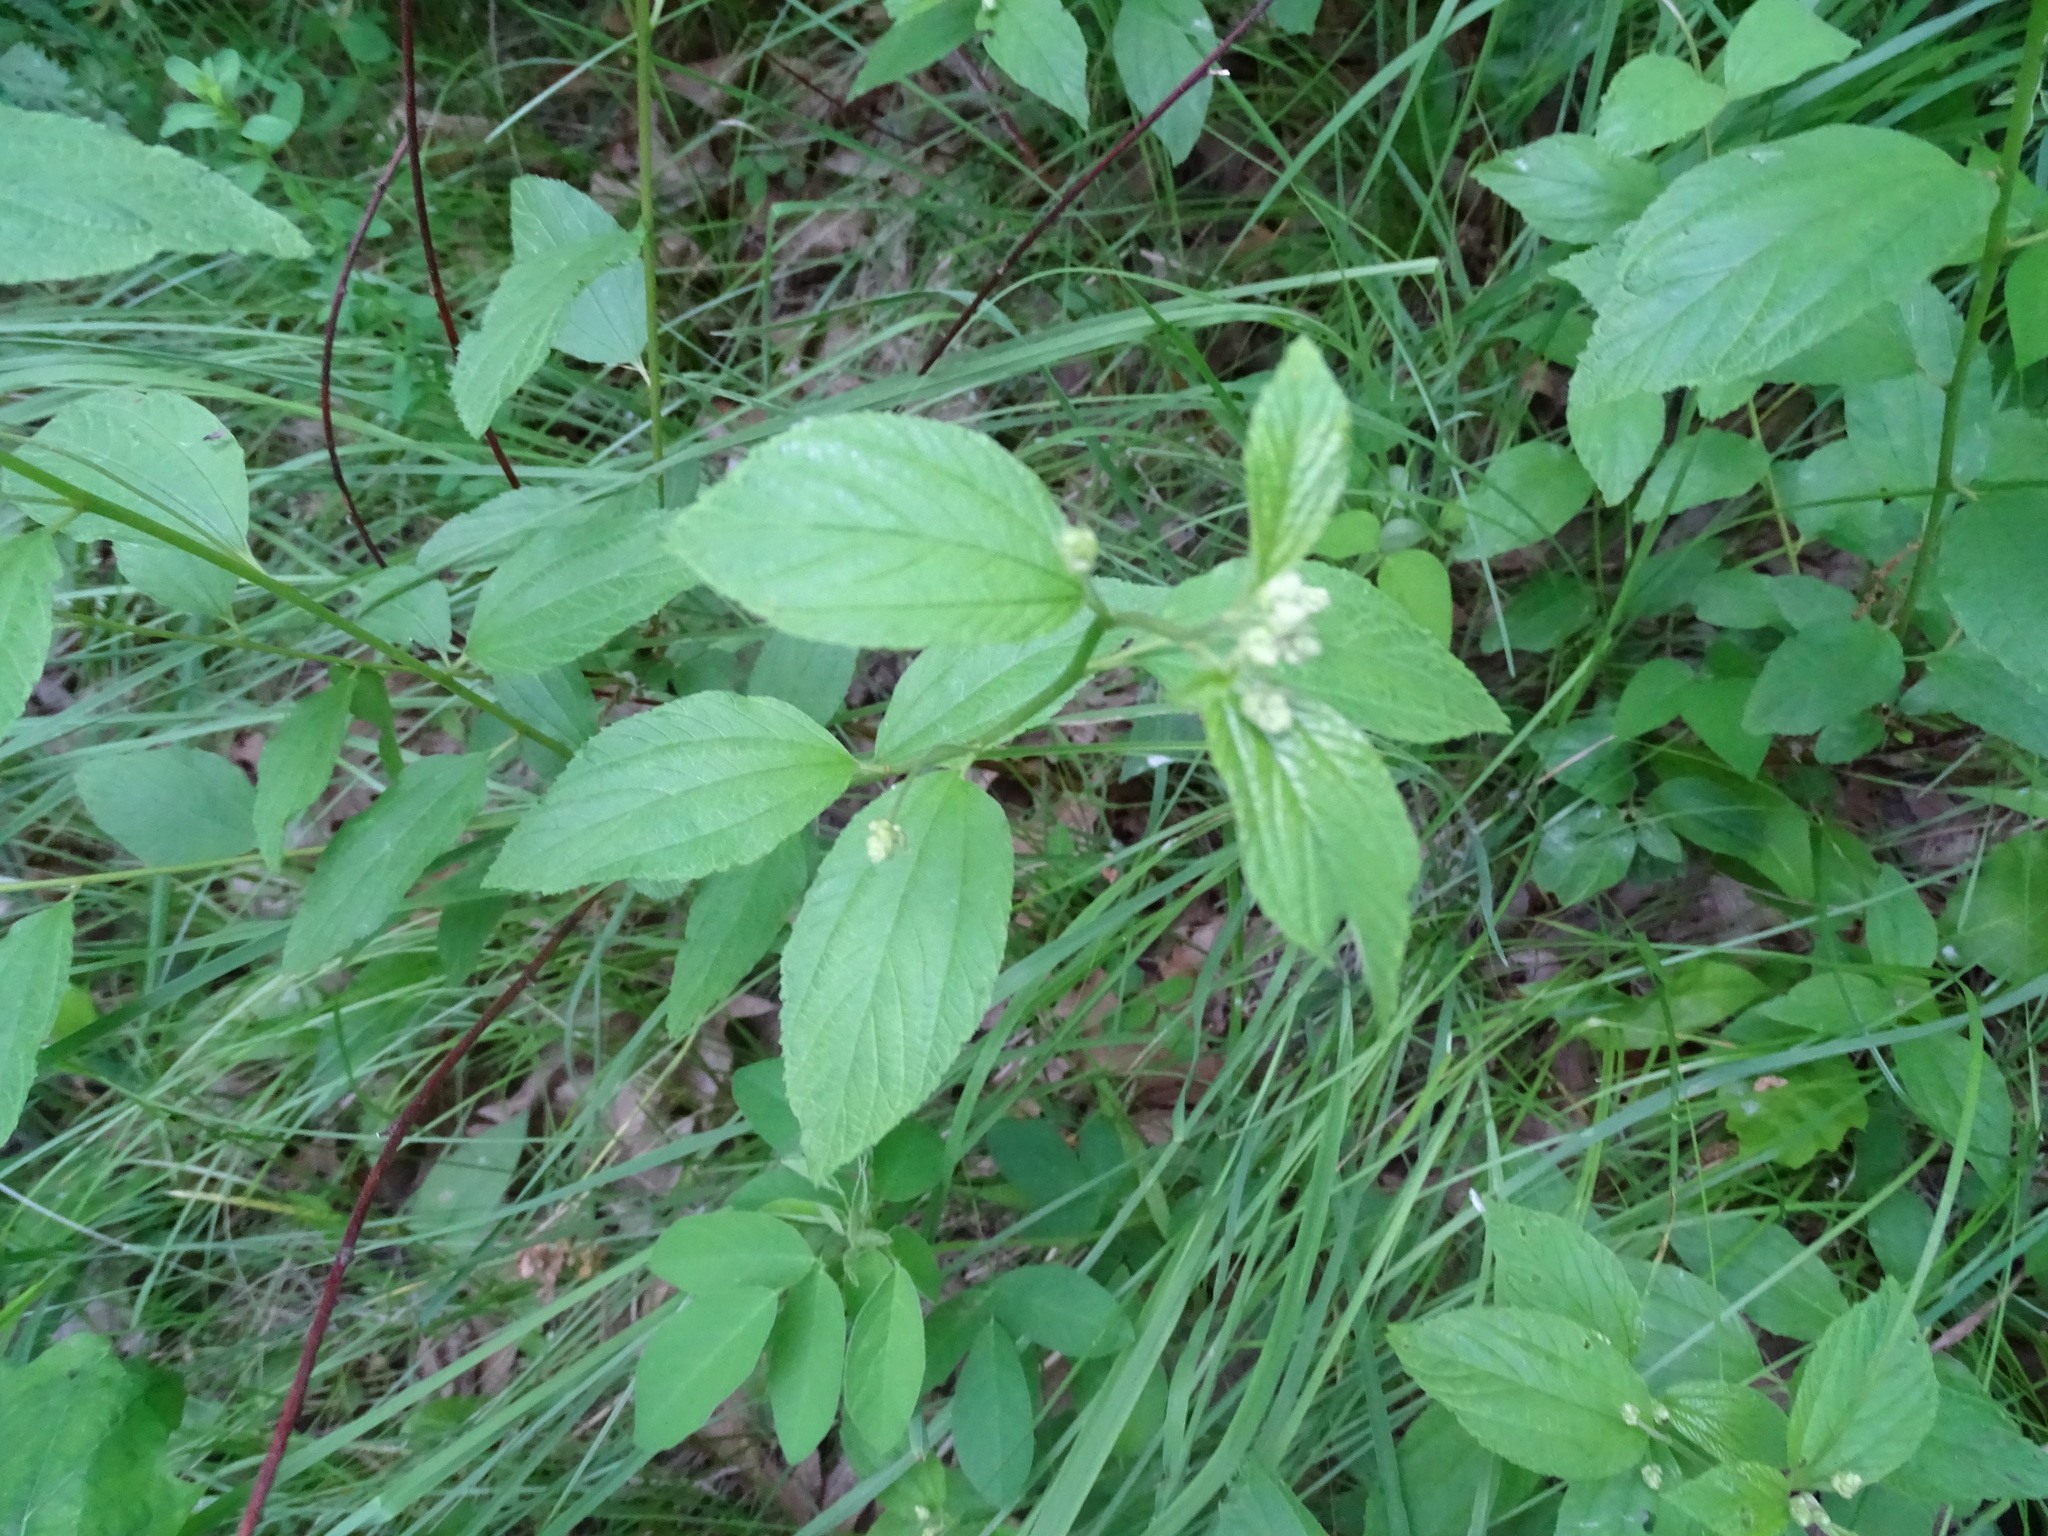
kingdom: Plantae
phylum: Tracheophyta
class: Magnoliopsida
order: Rosales
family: Rhamnaceae
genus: Ceanothus
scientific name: Ceanothus americanus
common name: Redroot
